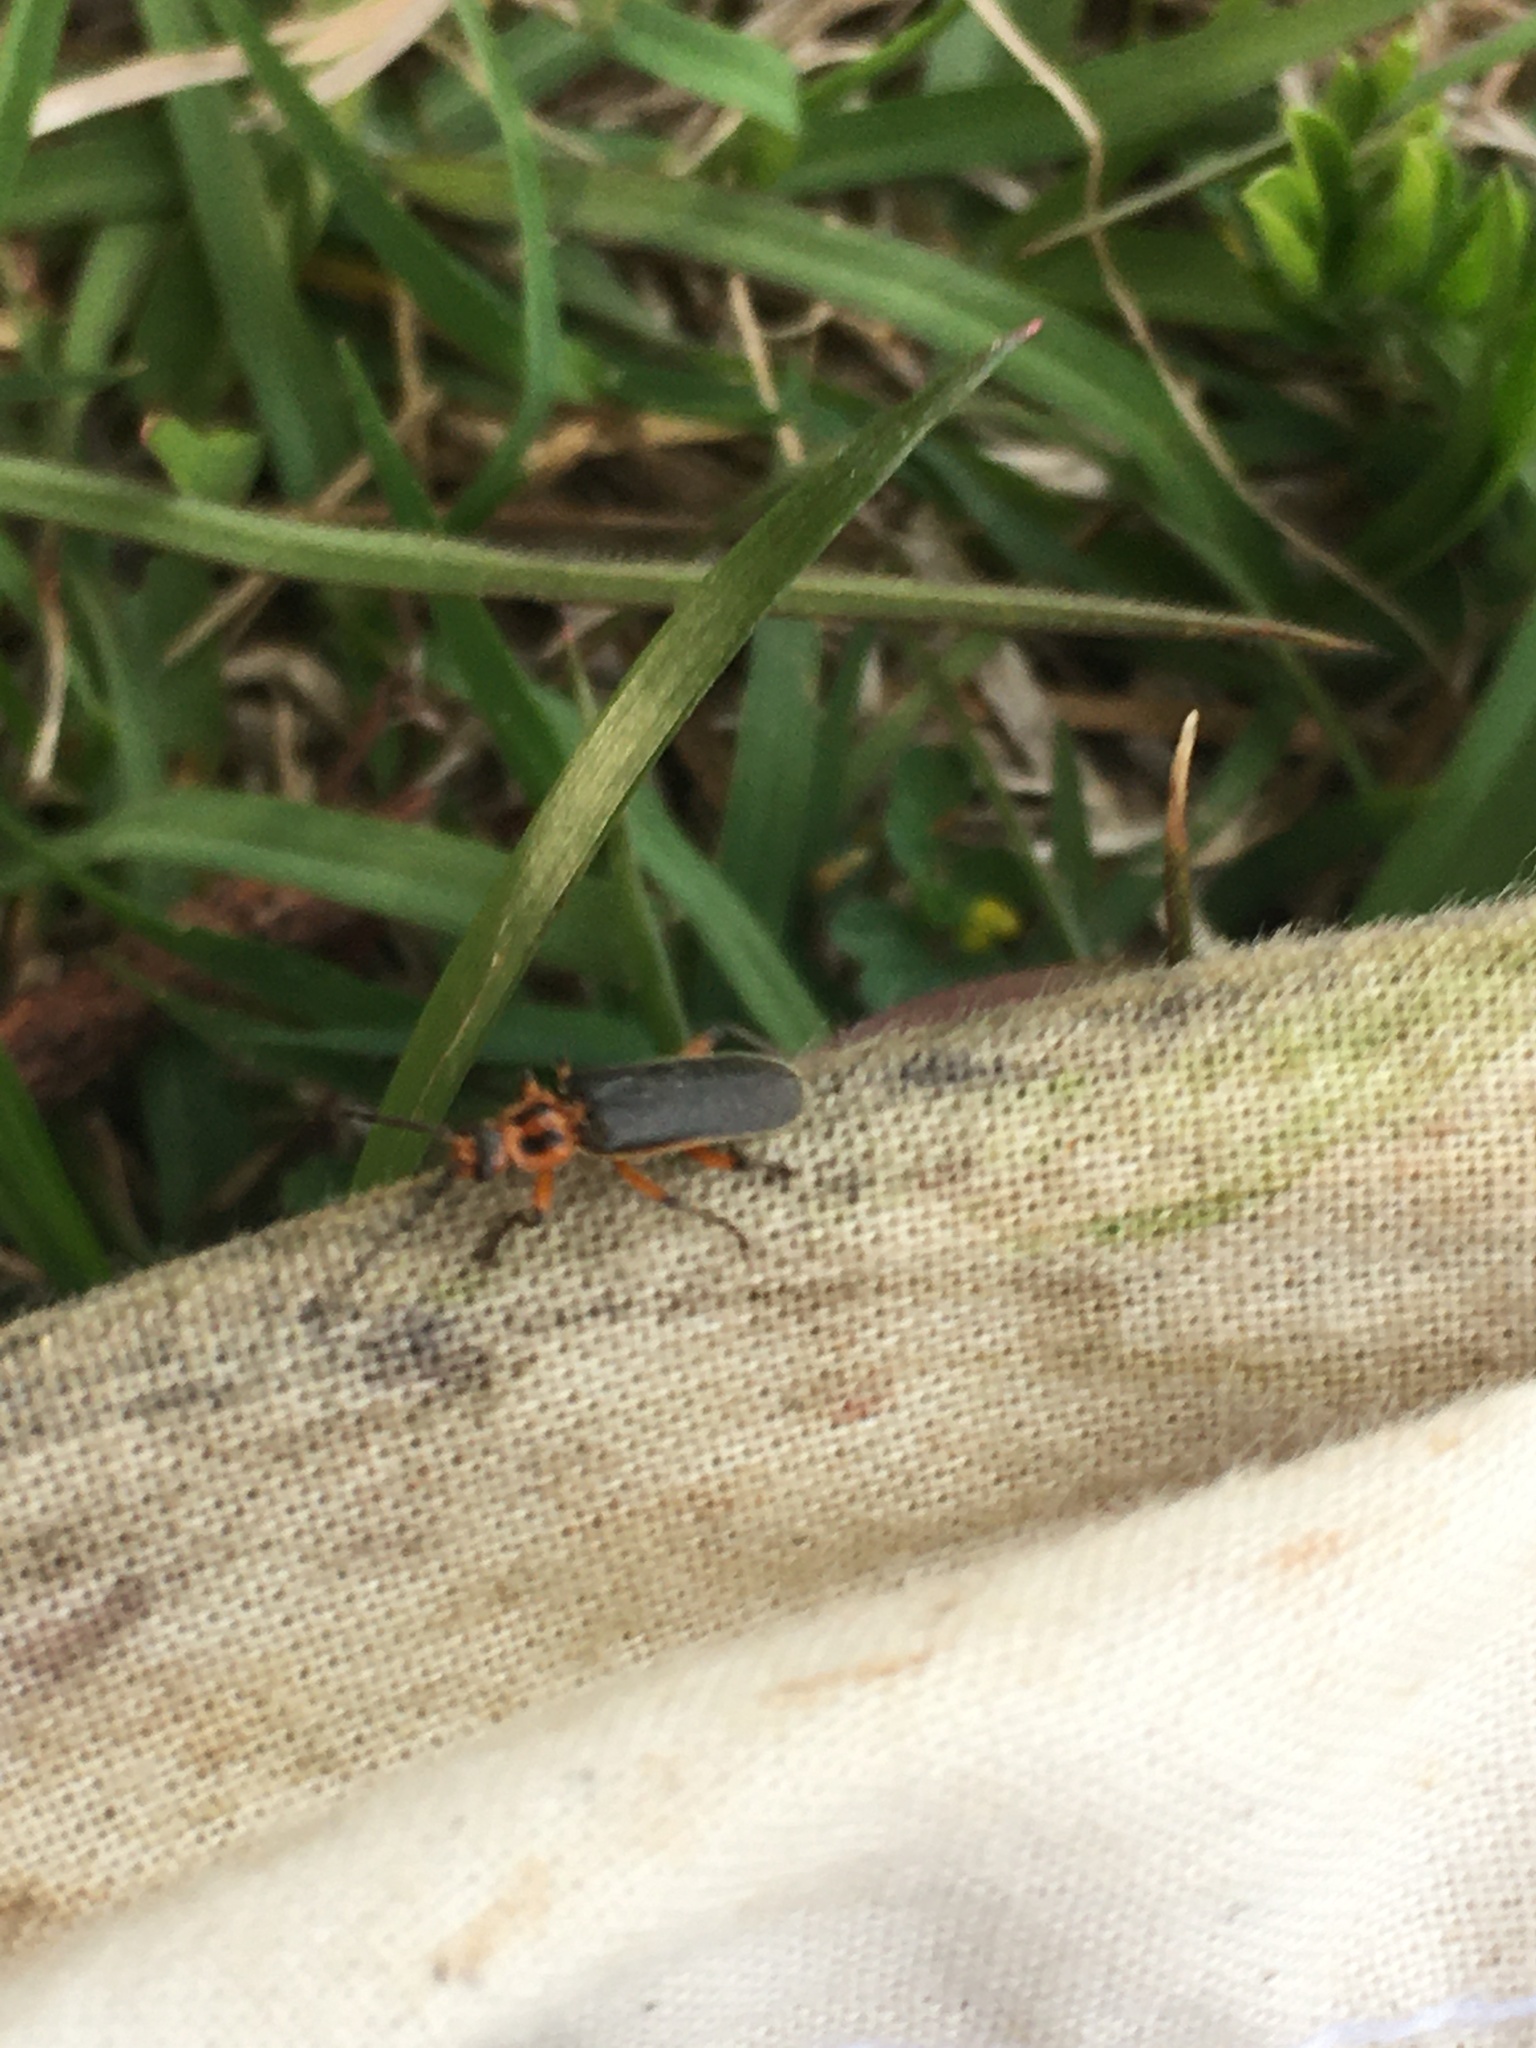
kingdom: Animalia
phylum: Arthropoda
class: Insecta
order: Coleoptera
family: Cantharidae
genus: Atalantycha
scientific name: Atalantycha bilineata
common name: Two-lined leatherwing
